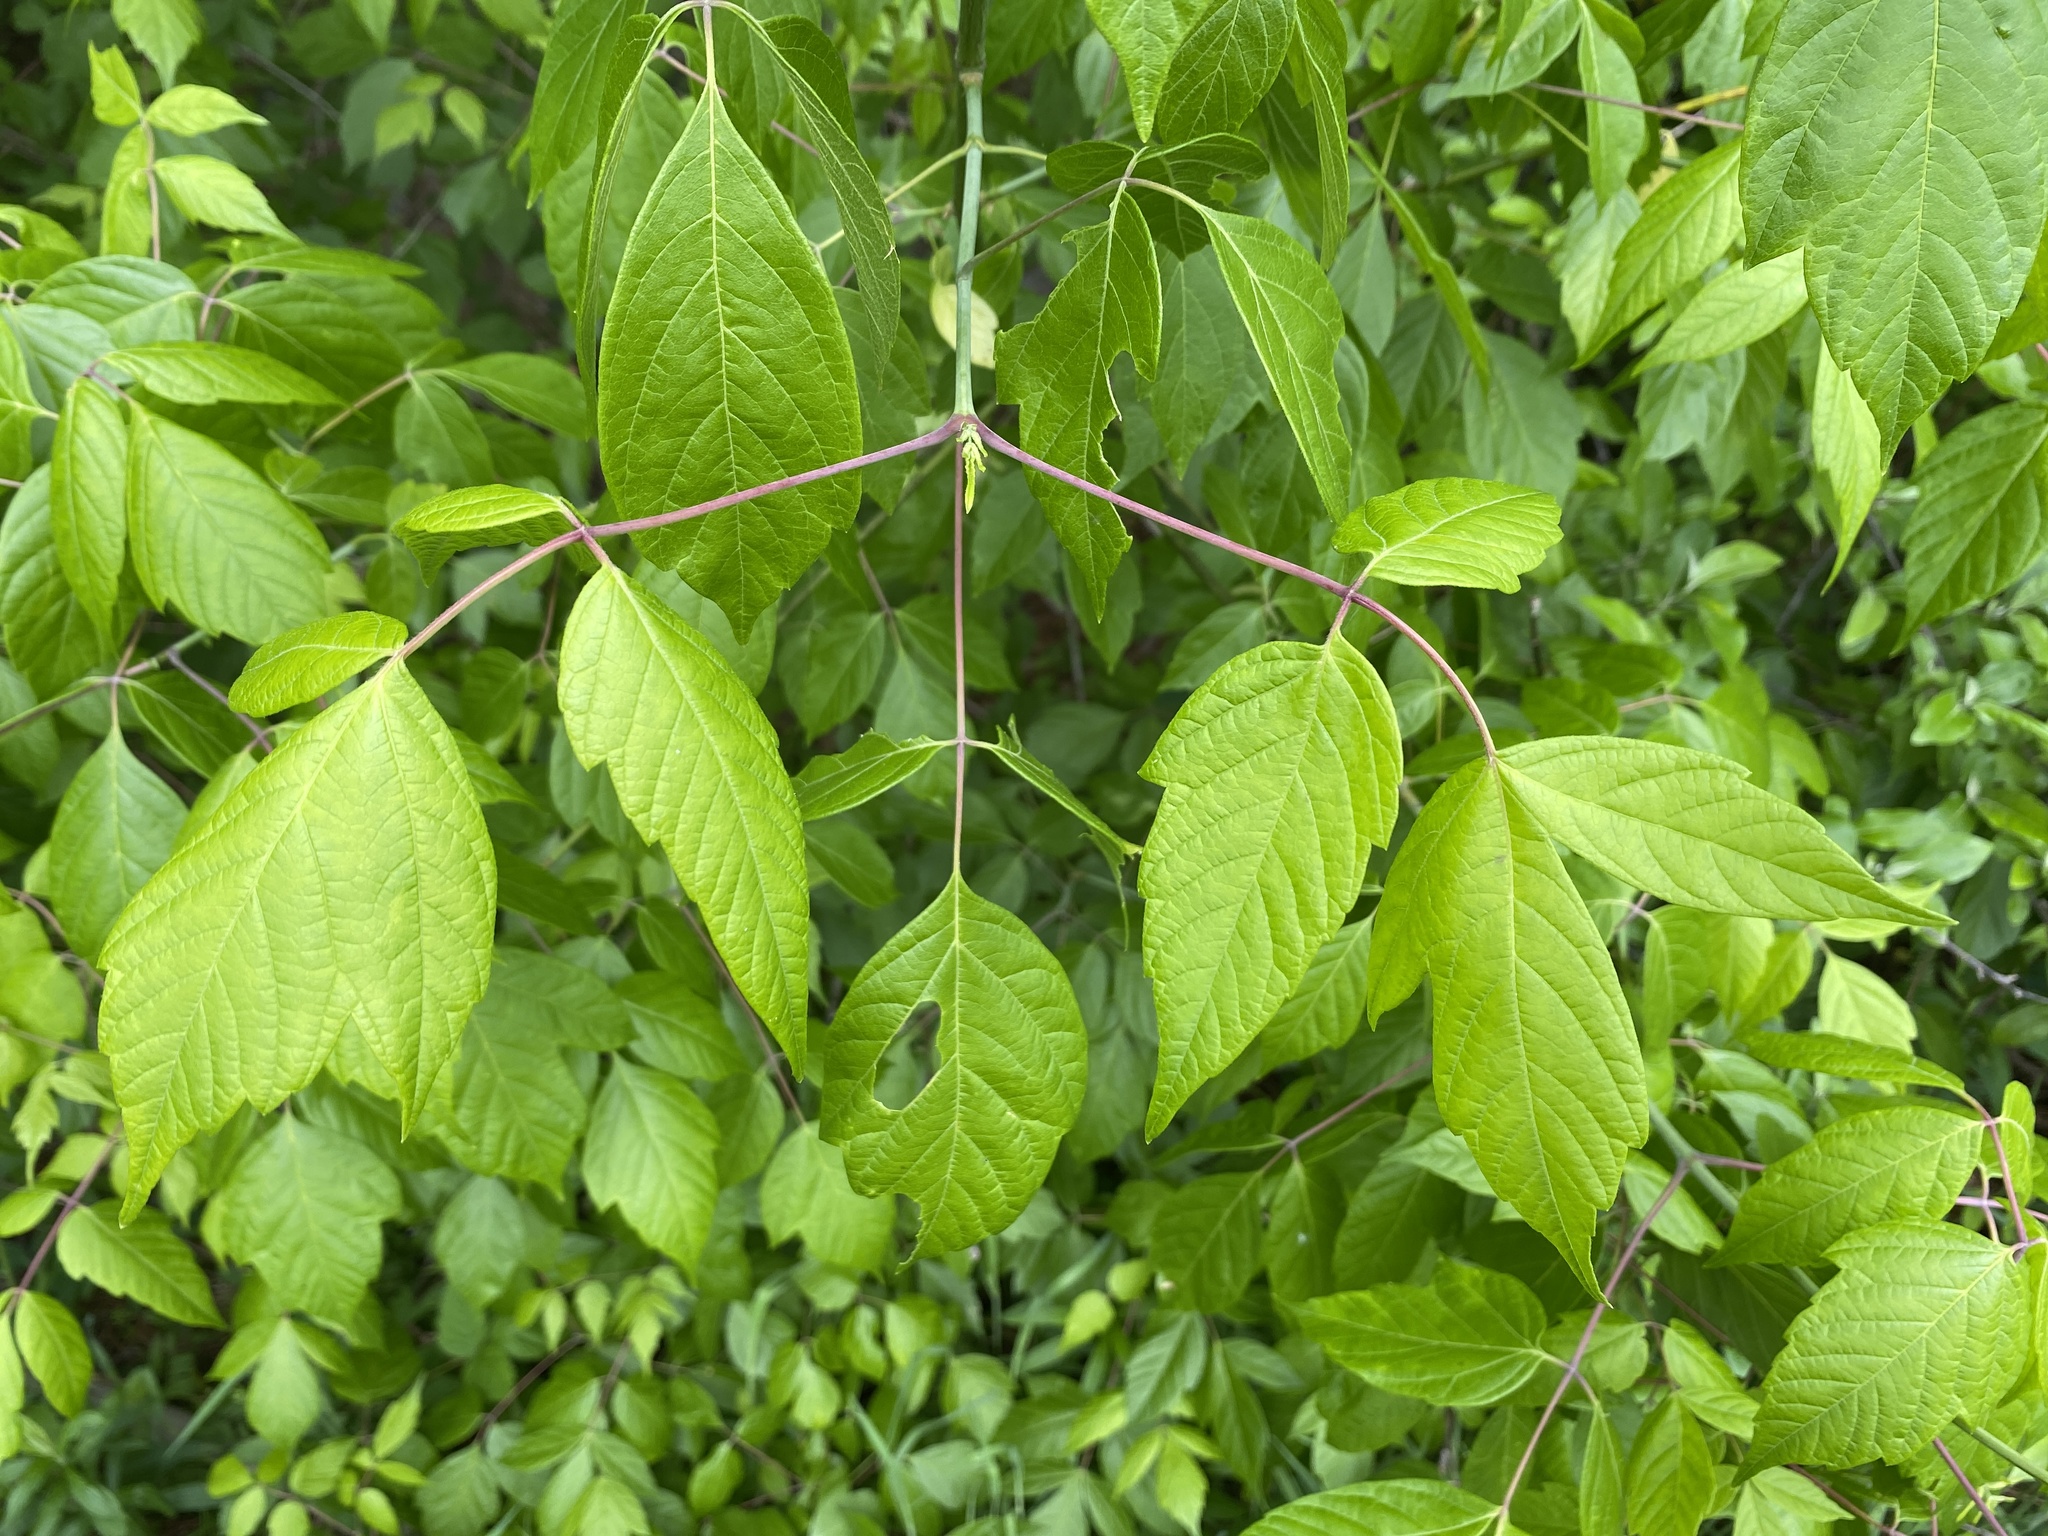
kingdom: Plantae
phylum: Tracheophyta
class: Magnoliopsida
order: Sapindales
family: Sapindaceae
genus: Acer
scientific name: Acer negundo
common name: Ashleaf maple
